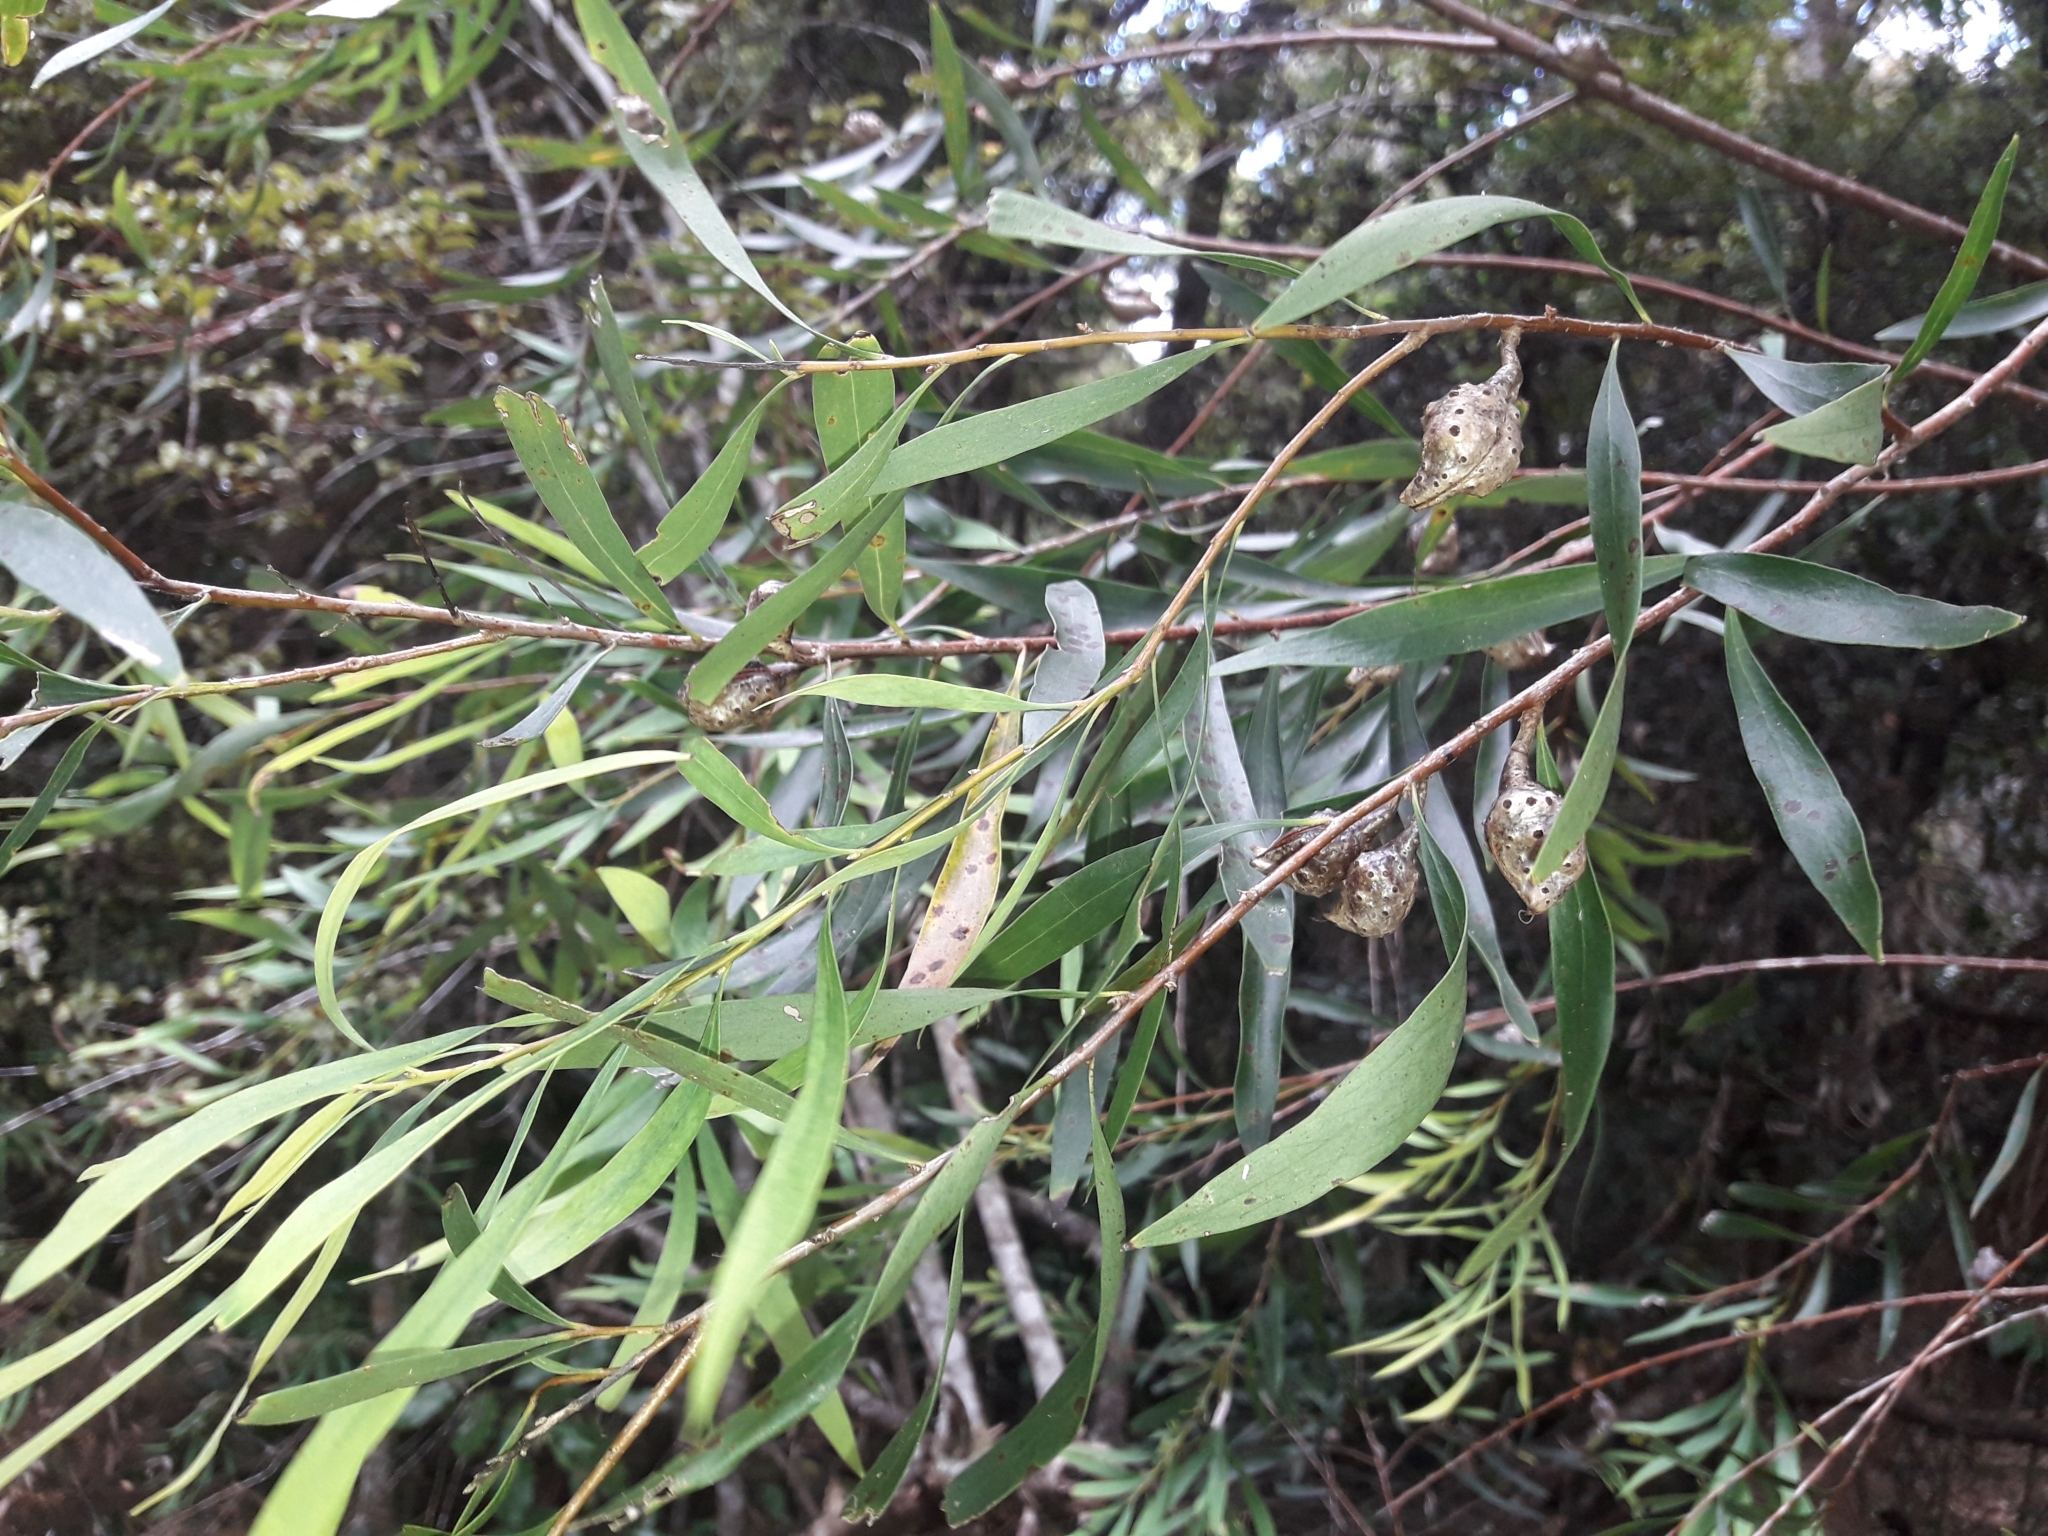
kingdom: Plantae
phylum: Tracheophyta
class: Magnoliopsida
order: Proteales
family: Proteaceae
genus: Hakea
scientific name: Hakea salicifolia
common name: Willow hakea
